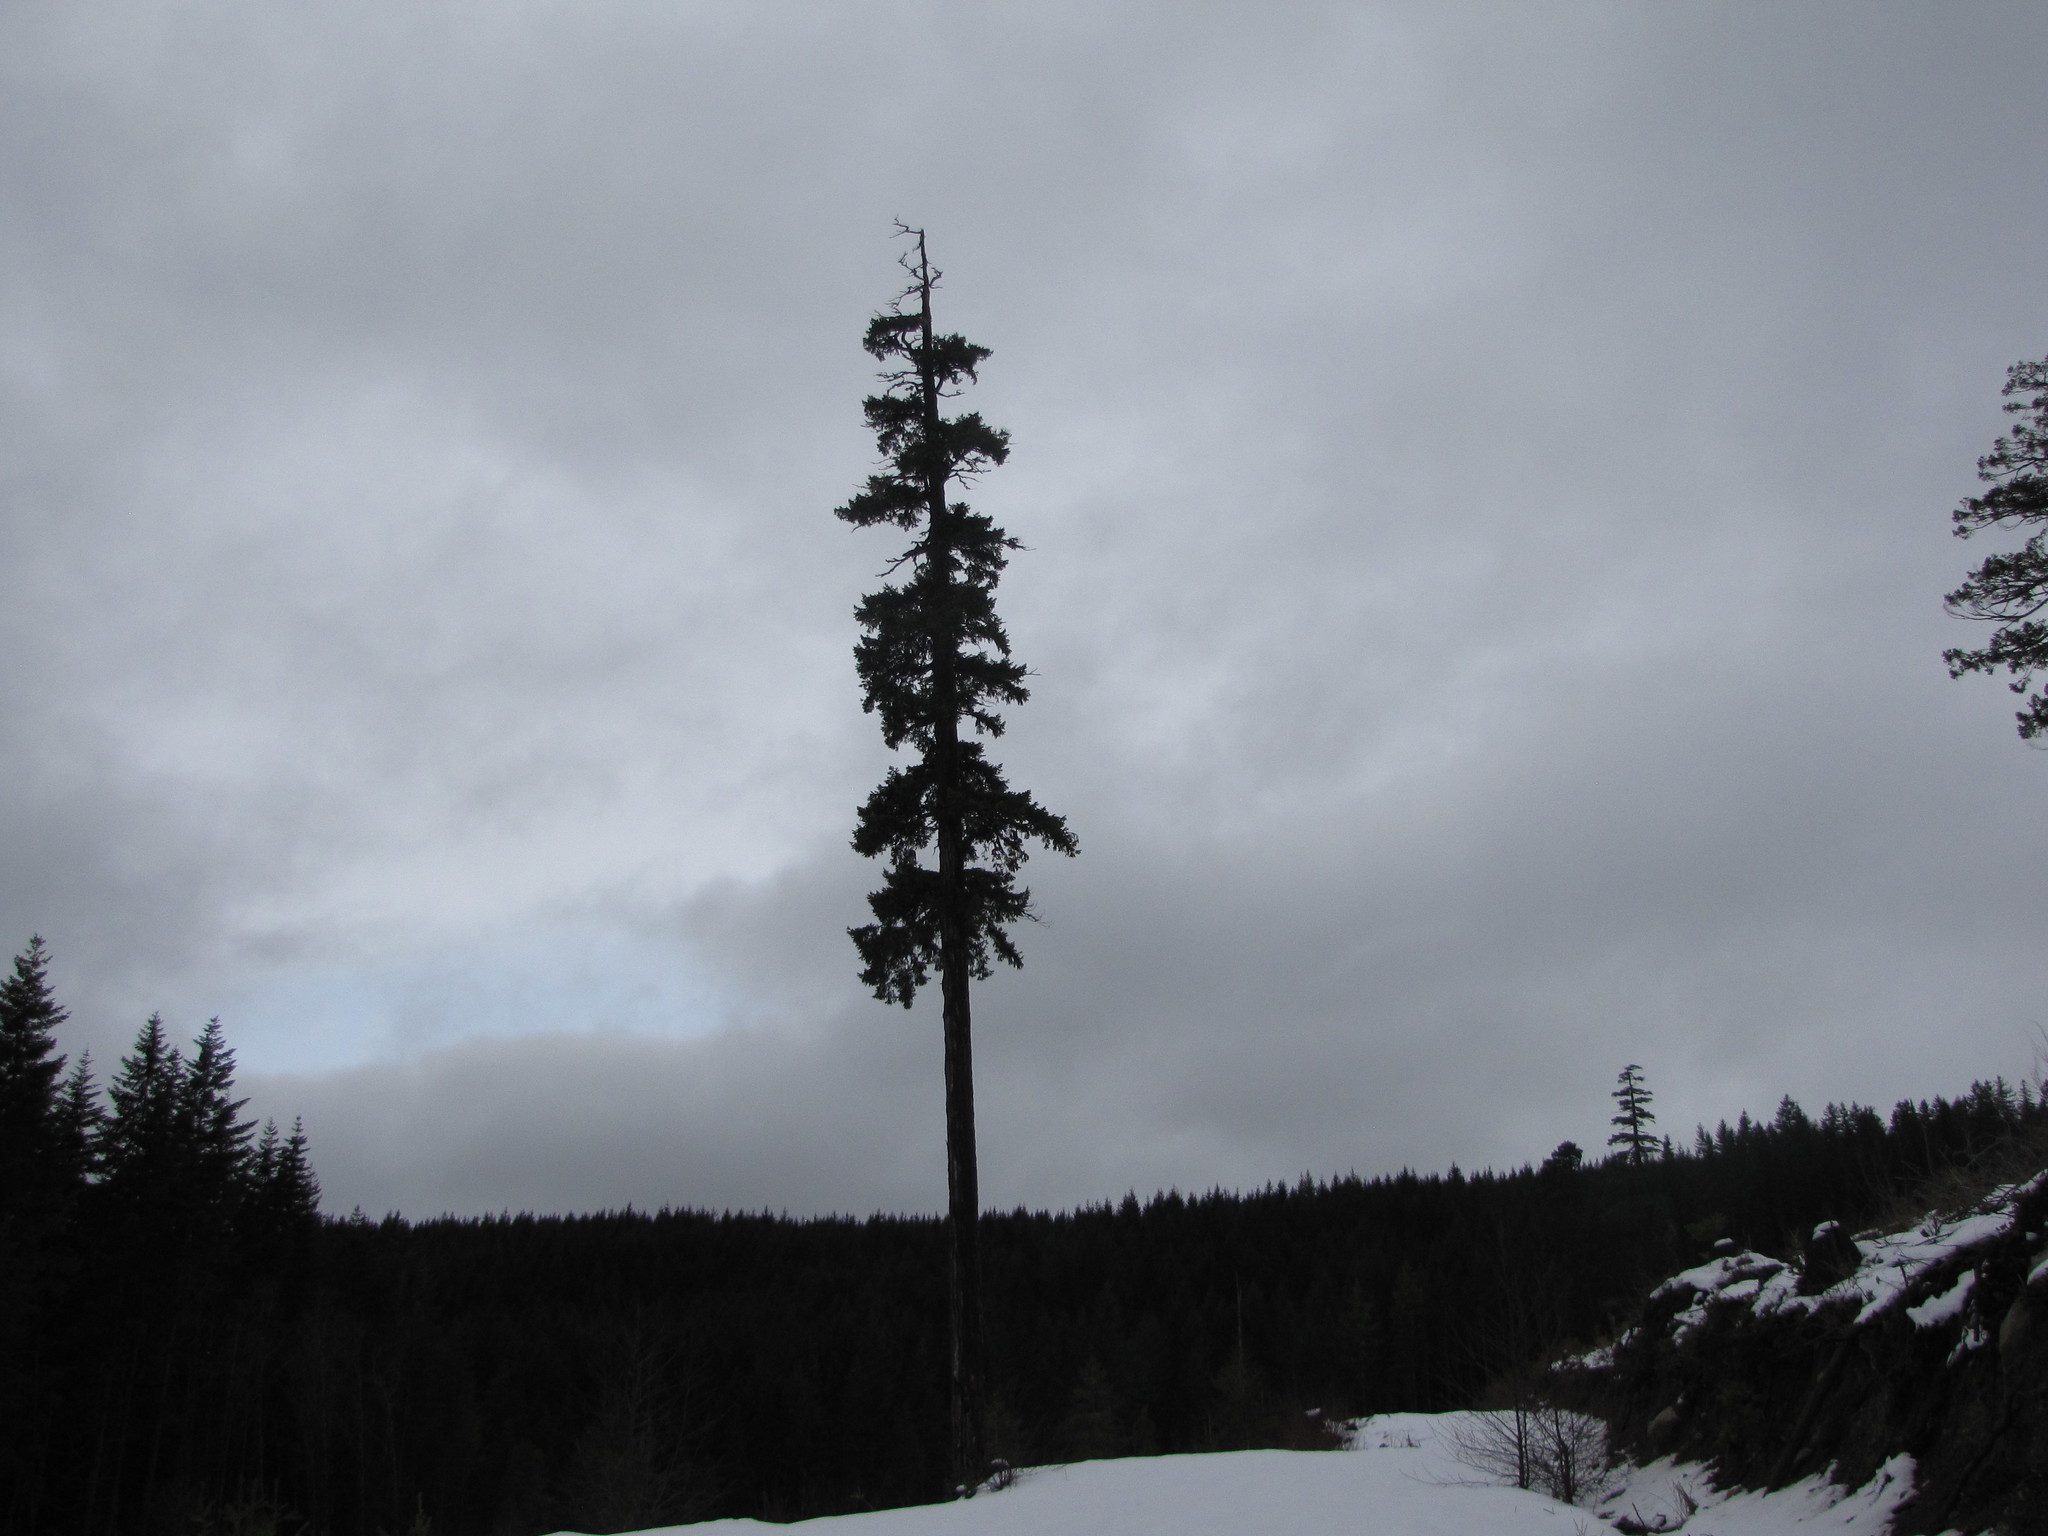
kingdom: Plantae
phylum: Tracheophyta
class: Pinopsida
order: Pinales
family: Pinaceae
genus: Pseudotsuga
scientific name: Pseudotsuga menziesii
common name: Douglas fir
